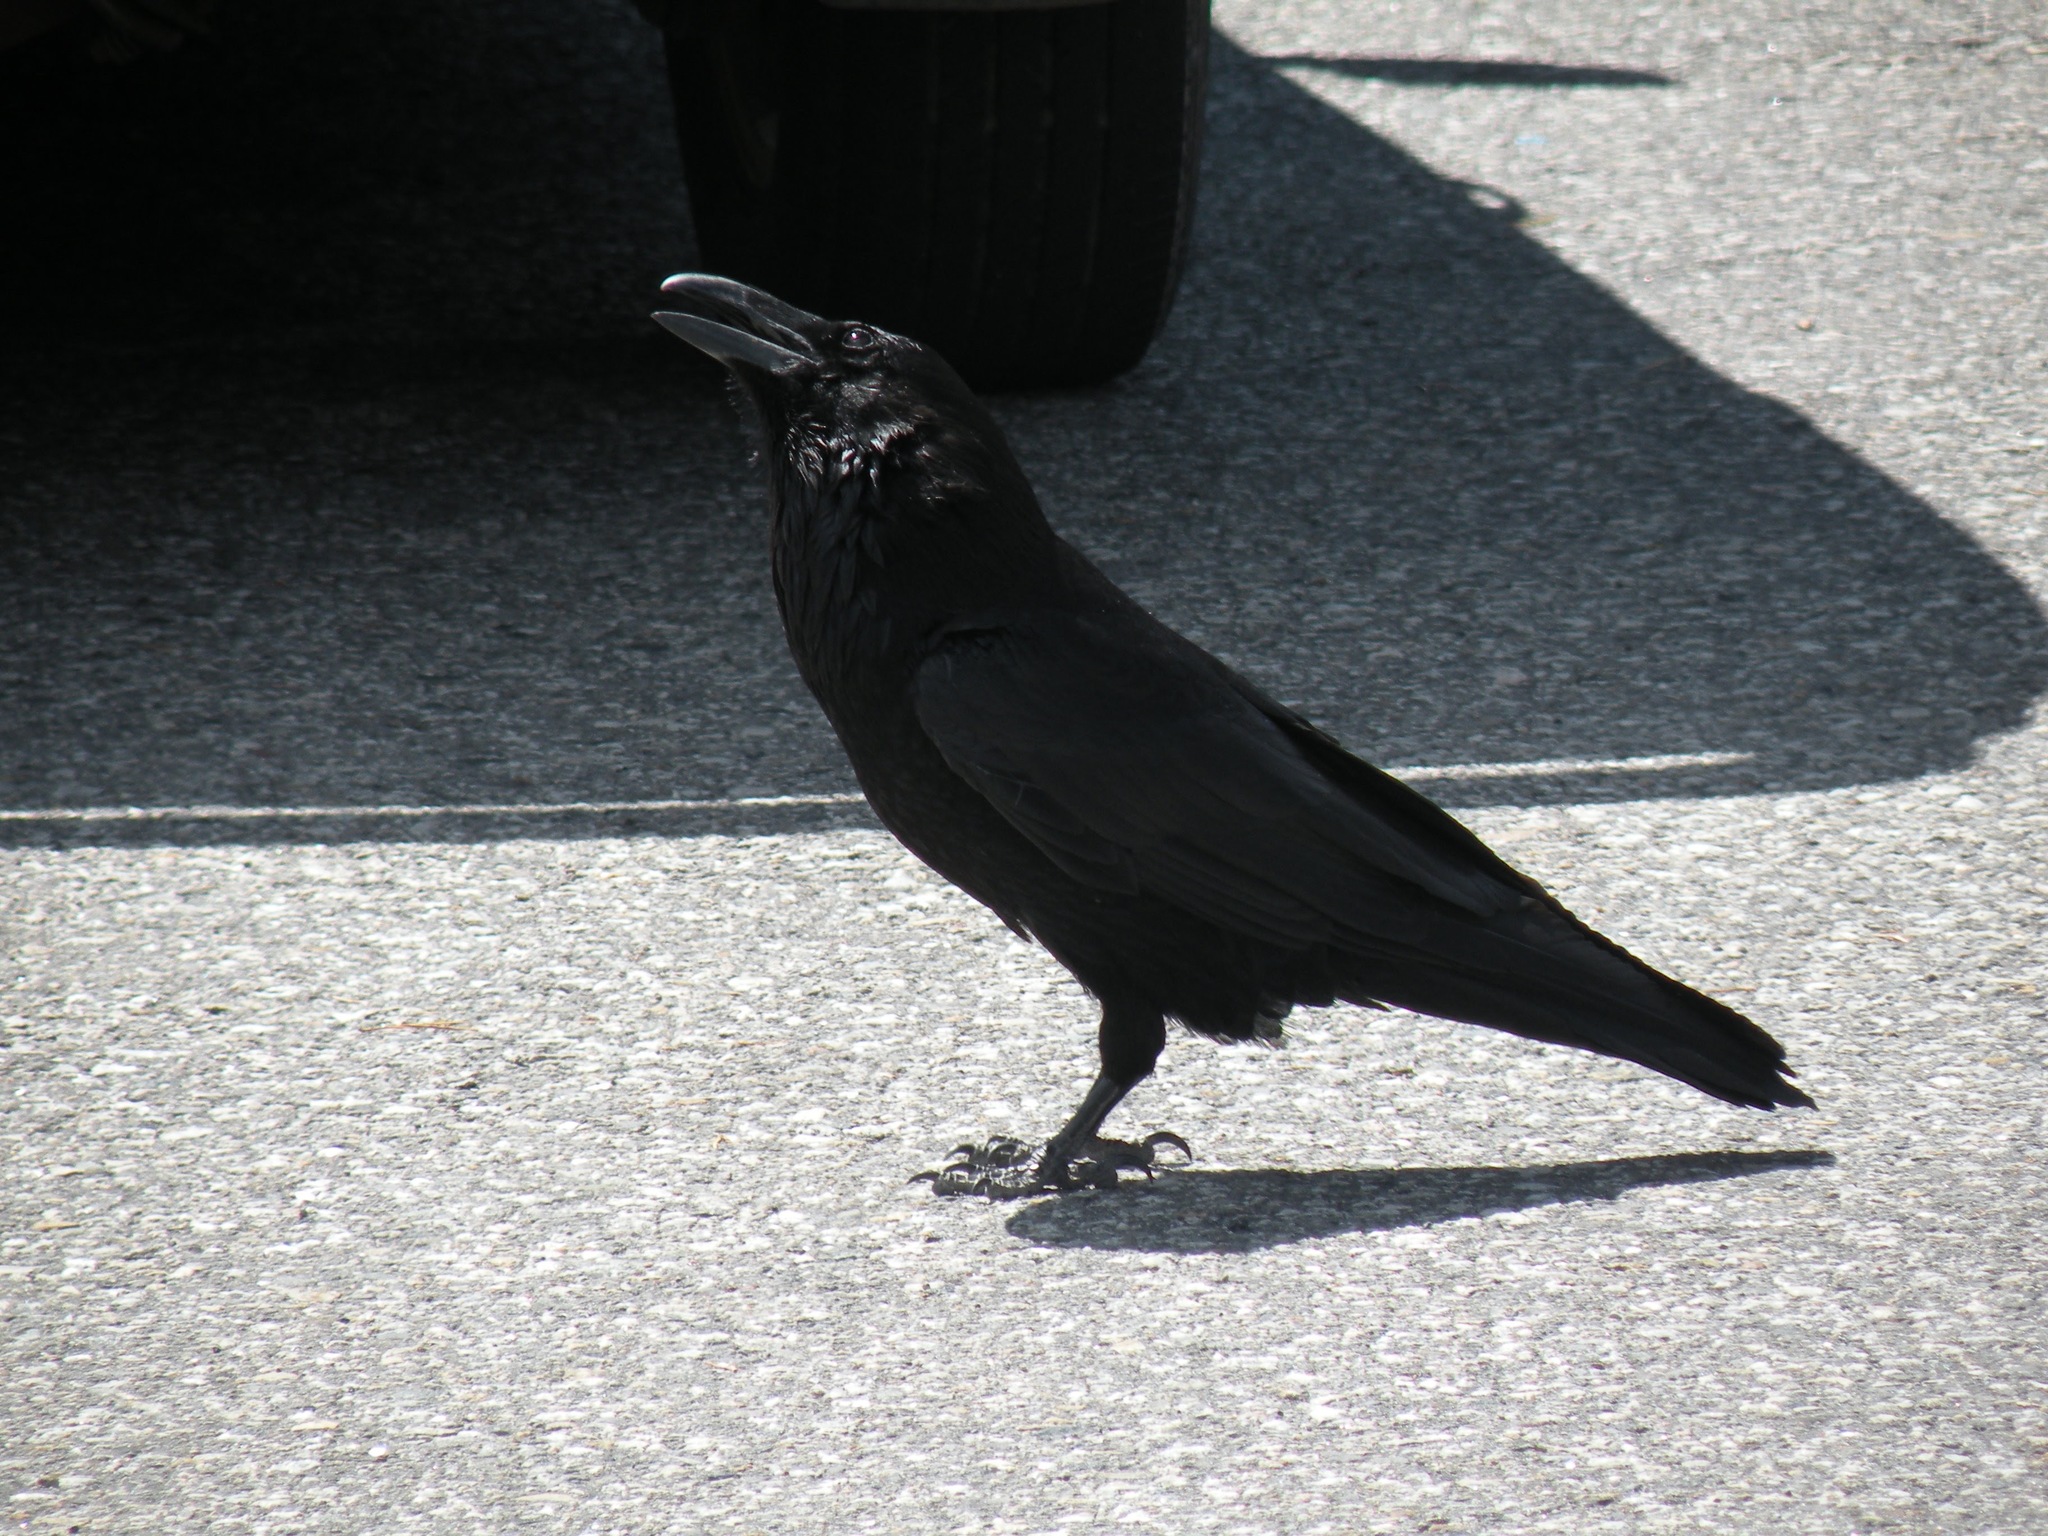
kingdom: Animalia
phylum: Chordata
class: Aves
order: Passeriformes
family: Corvidae
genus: Corvus
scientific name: Corvus corax
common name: Common raven
